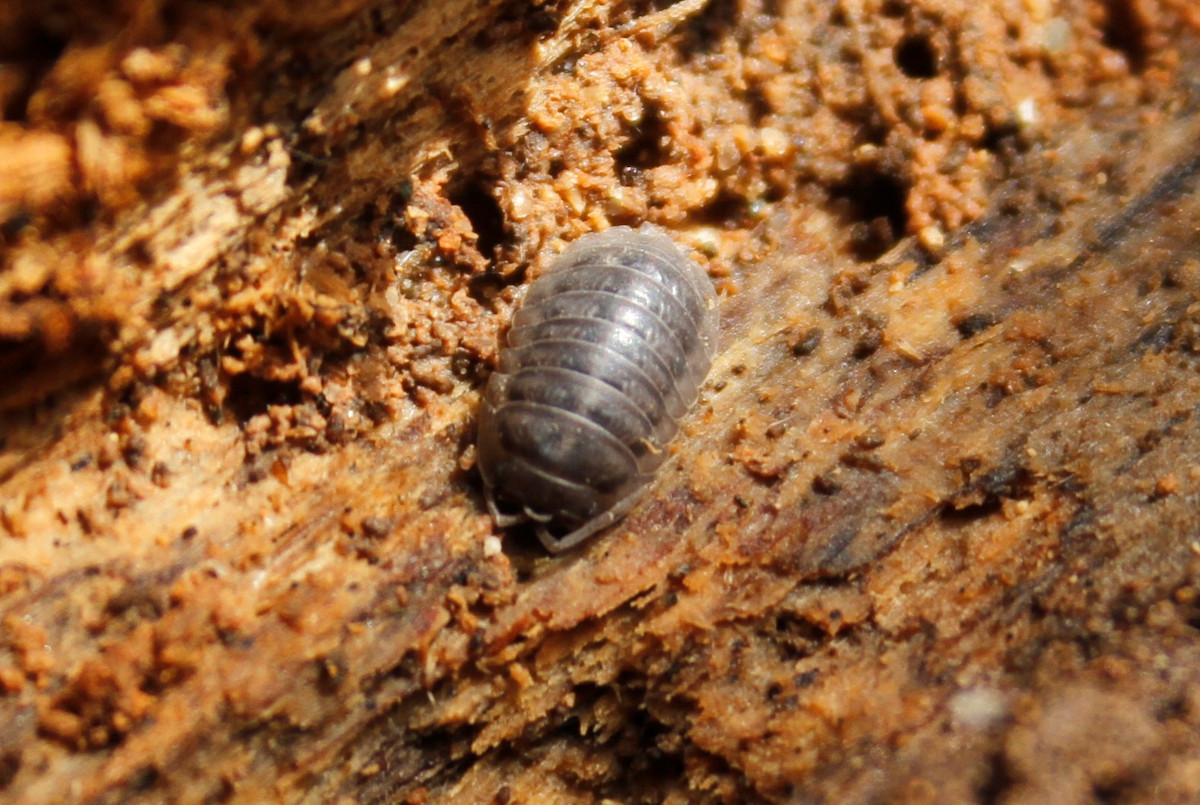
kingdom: Animalia
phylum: Arthropoda
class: Malacostraca
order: Isopoda
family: Armadillidiidae
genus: Armadillidium
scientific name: Armadillidium nasatum
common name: Isopod
